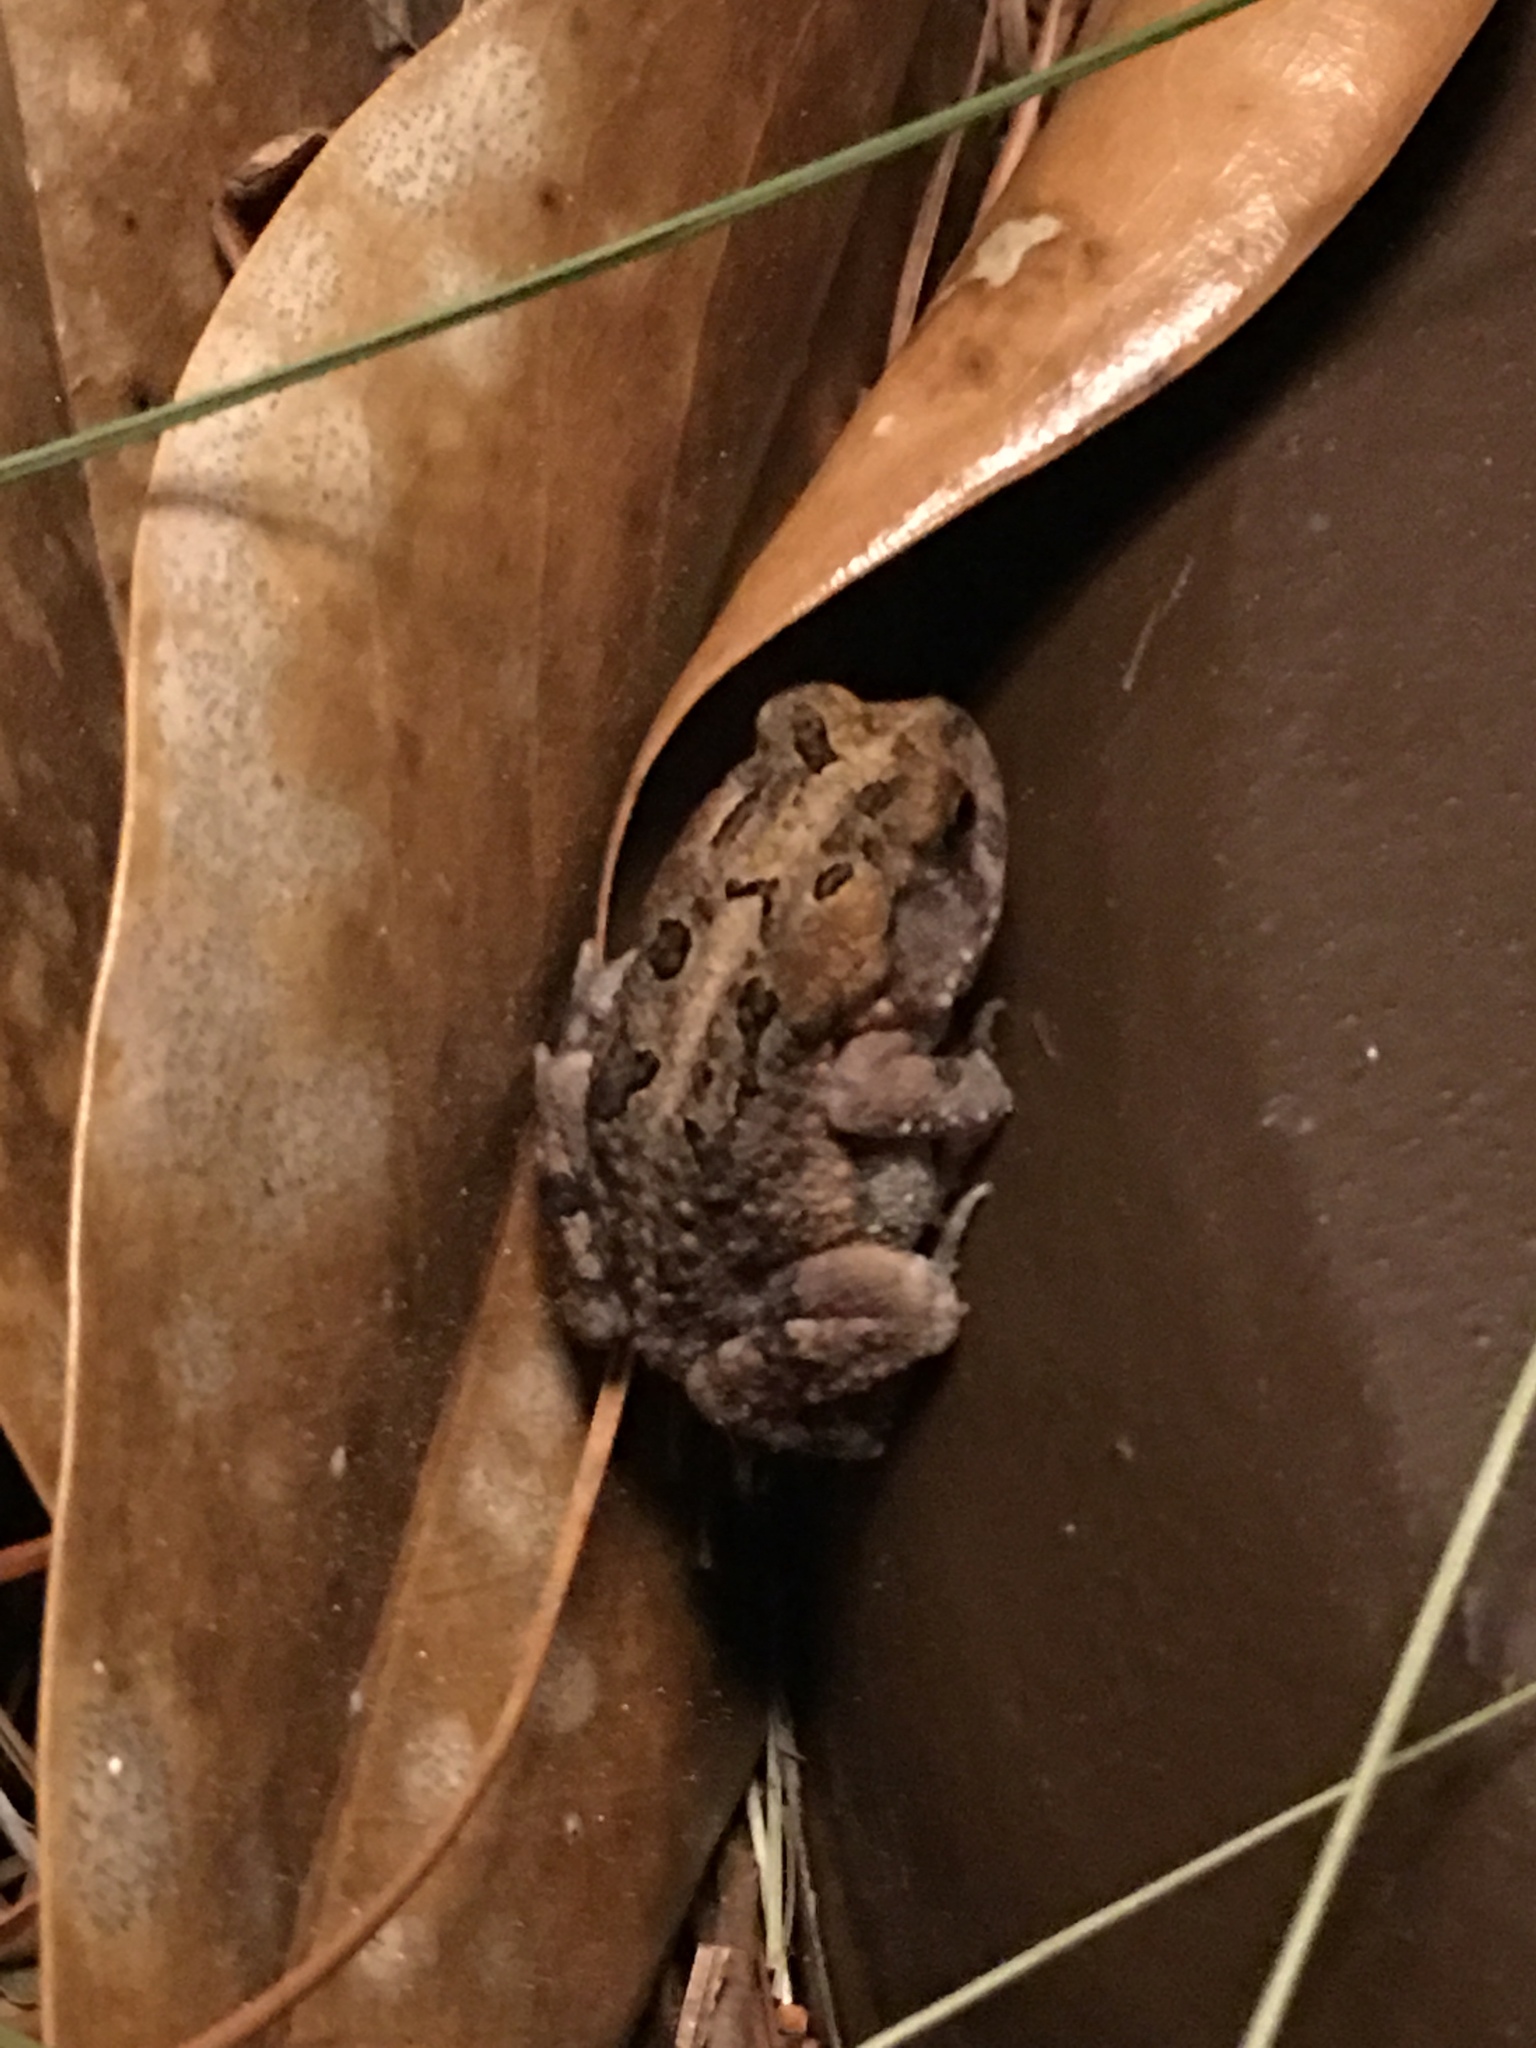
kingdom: Animalia
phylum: Chordata
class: Amphibia
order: Anura
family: Bufonidae
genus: Anaxyrus
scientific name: Anaxyrus terrestris
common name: Southern toad
